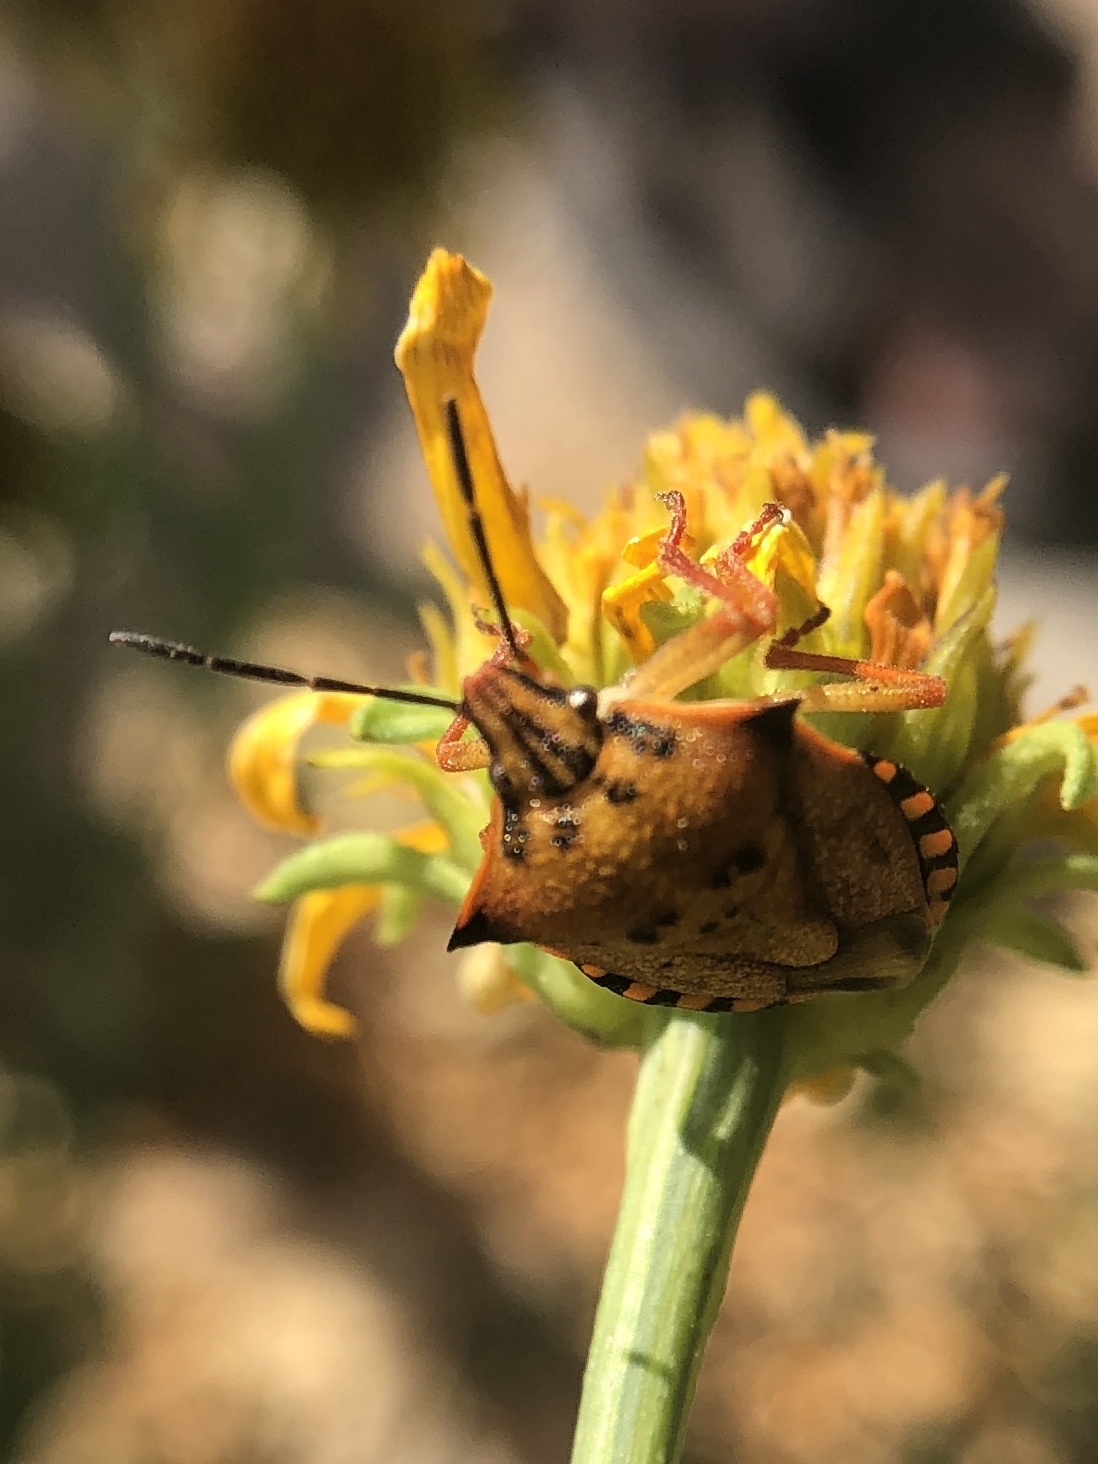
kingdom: Animalia
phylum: Arthropoda
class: Insecta
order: Hemiptera
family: Pentatomidae
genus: Carpocoris
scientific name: Carpocoris mediterraneus
